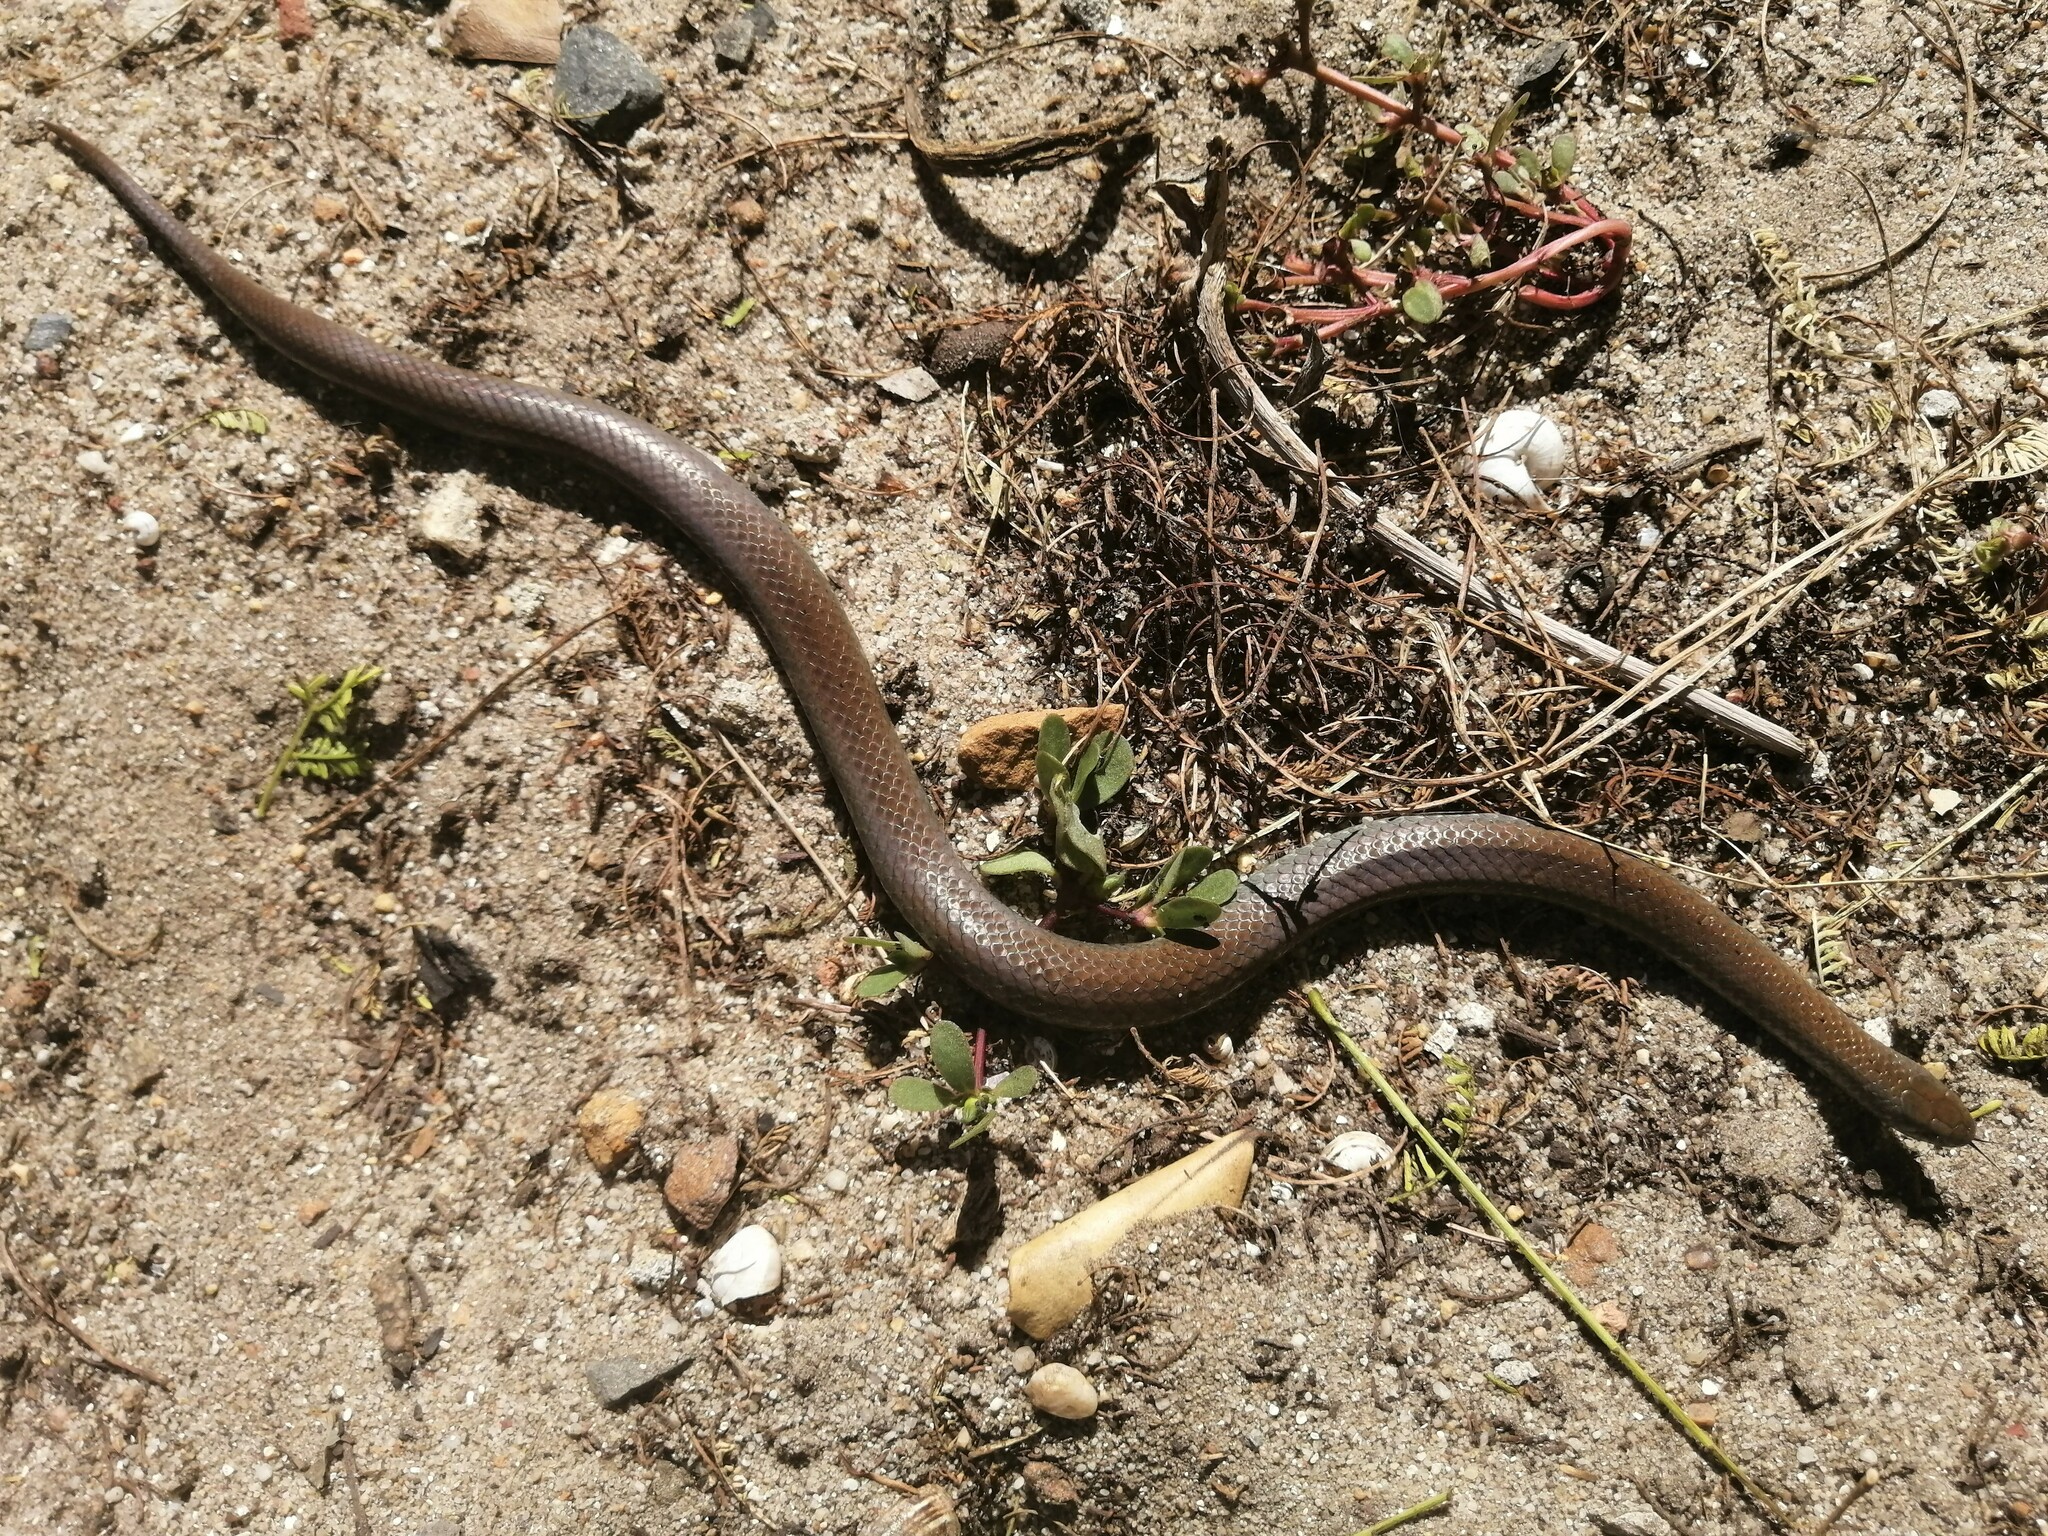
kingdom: Animalia
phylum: Chordata
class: Squamata
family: Pseudoxyrhophiidae
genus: Duberria
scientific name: Duberria lutrix
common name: Common slug eater
